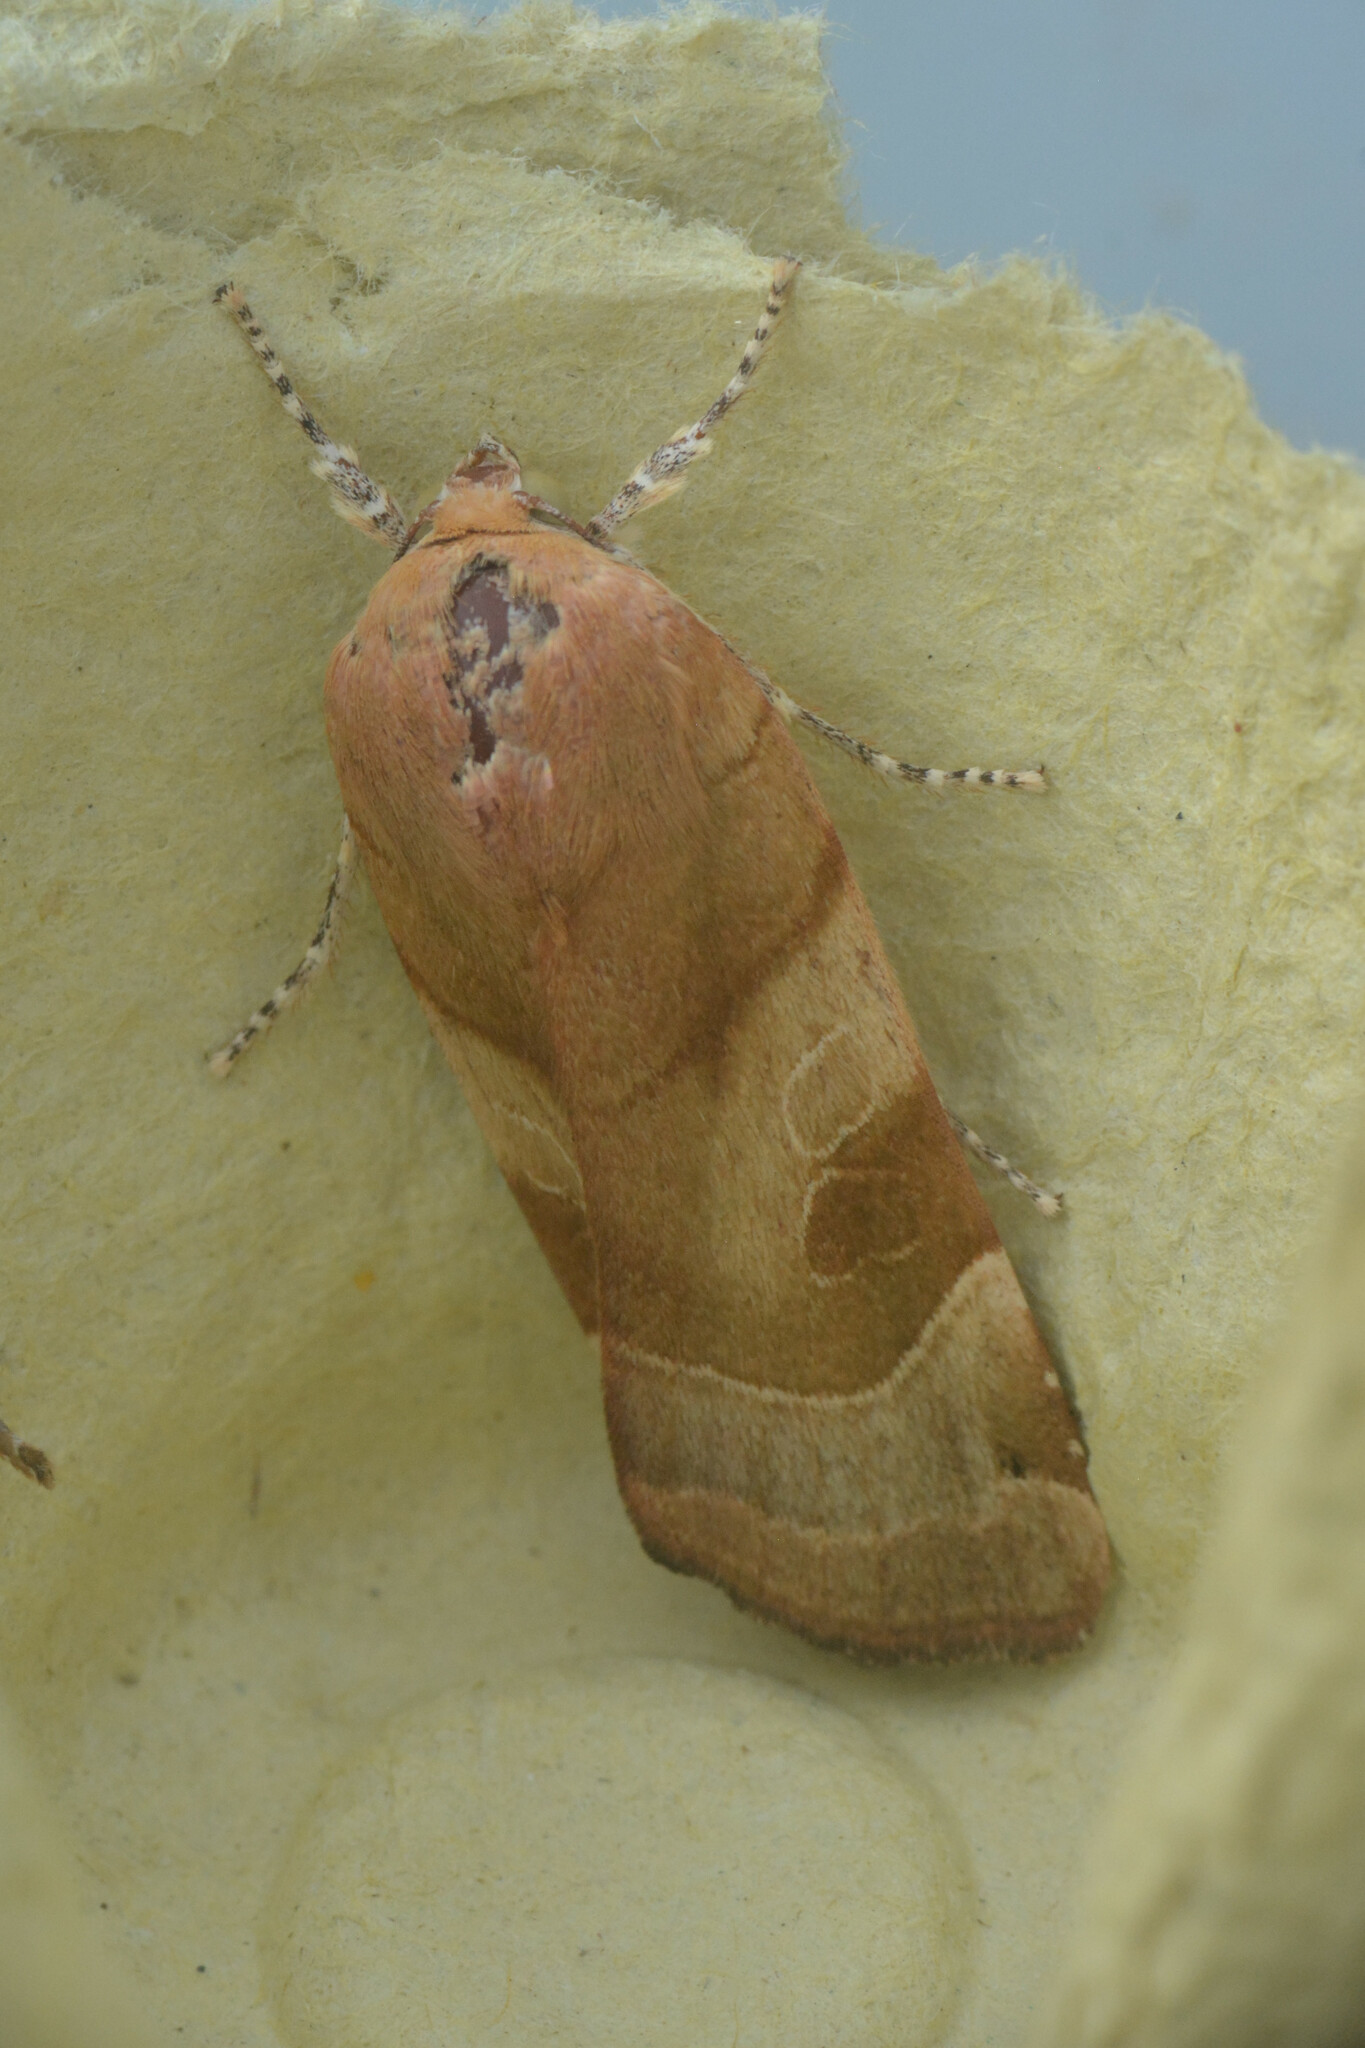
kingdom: Animalia
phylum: Arthropoda
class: Insecta
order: Lepidoptera
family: Noctuidae
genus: Noctua
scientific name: Noctua fimbriata
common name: Broad-bordered yellow underwing
